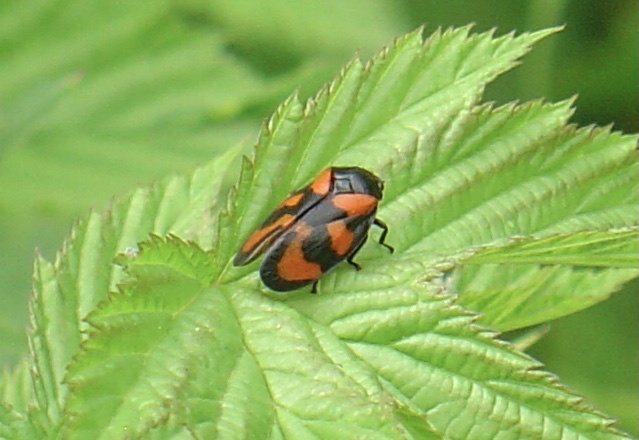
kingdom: Animalia
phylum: Arthropoda
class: Insecta
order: Hemiptera
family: Cercopidae
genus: Cercopis
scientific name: Cercopis vulnerata
